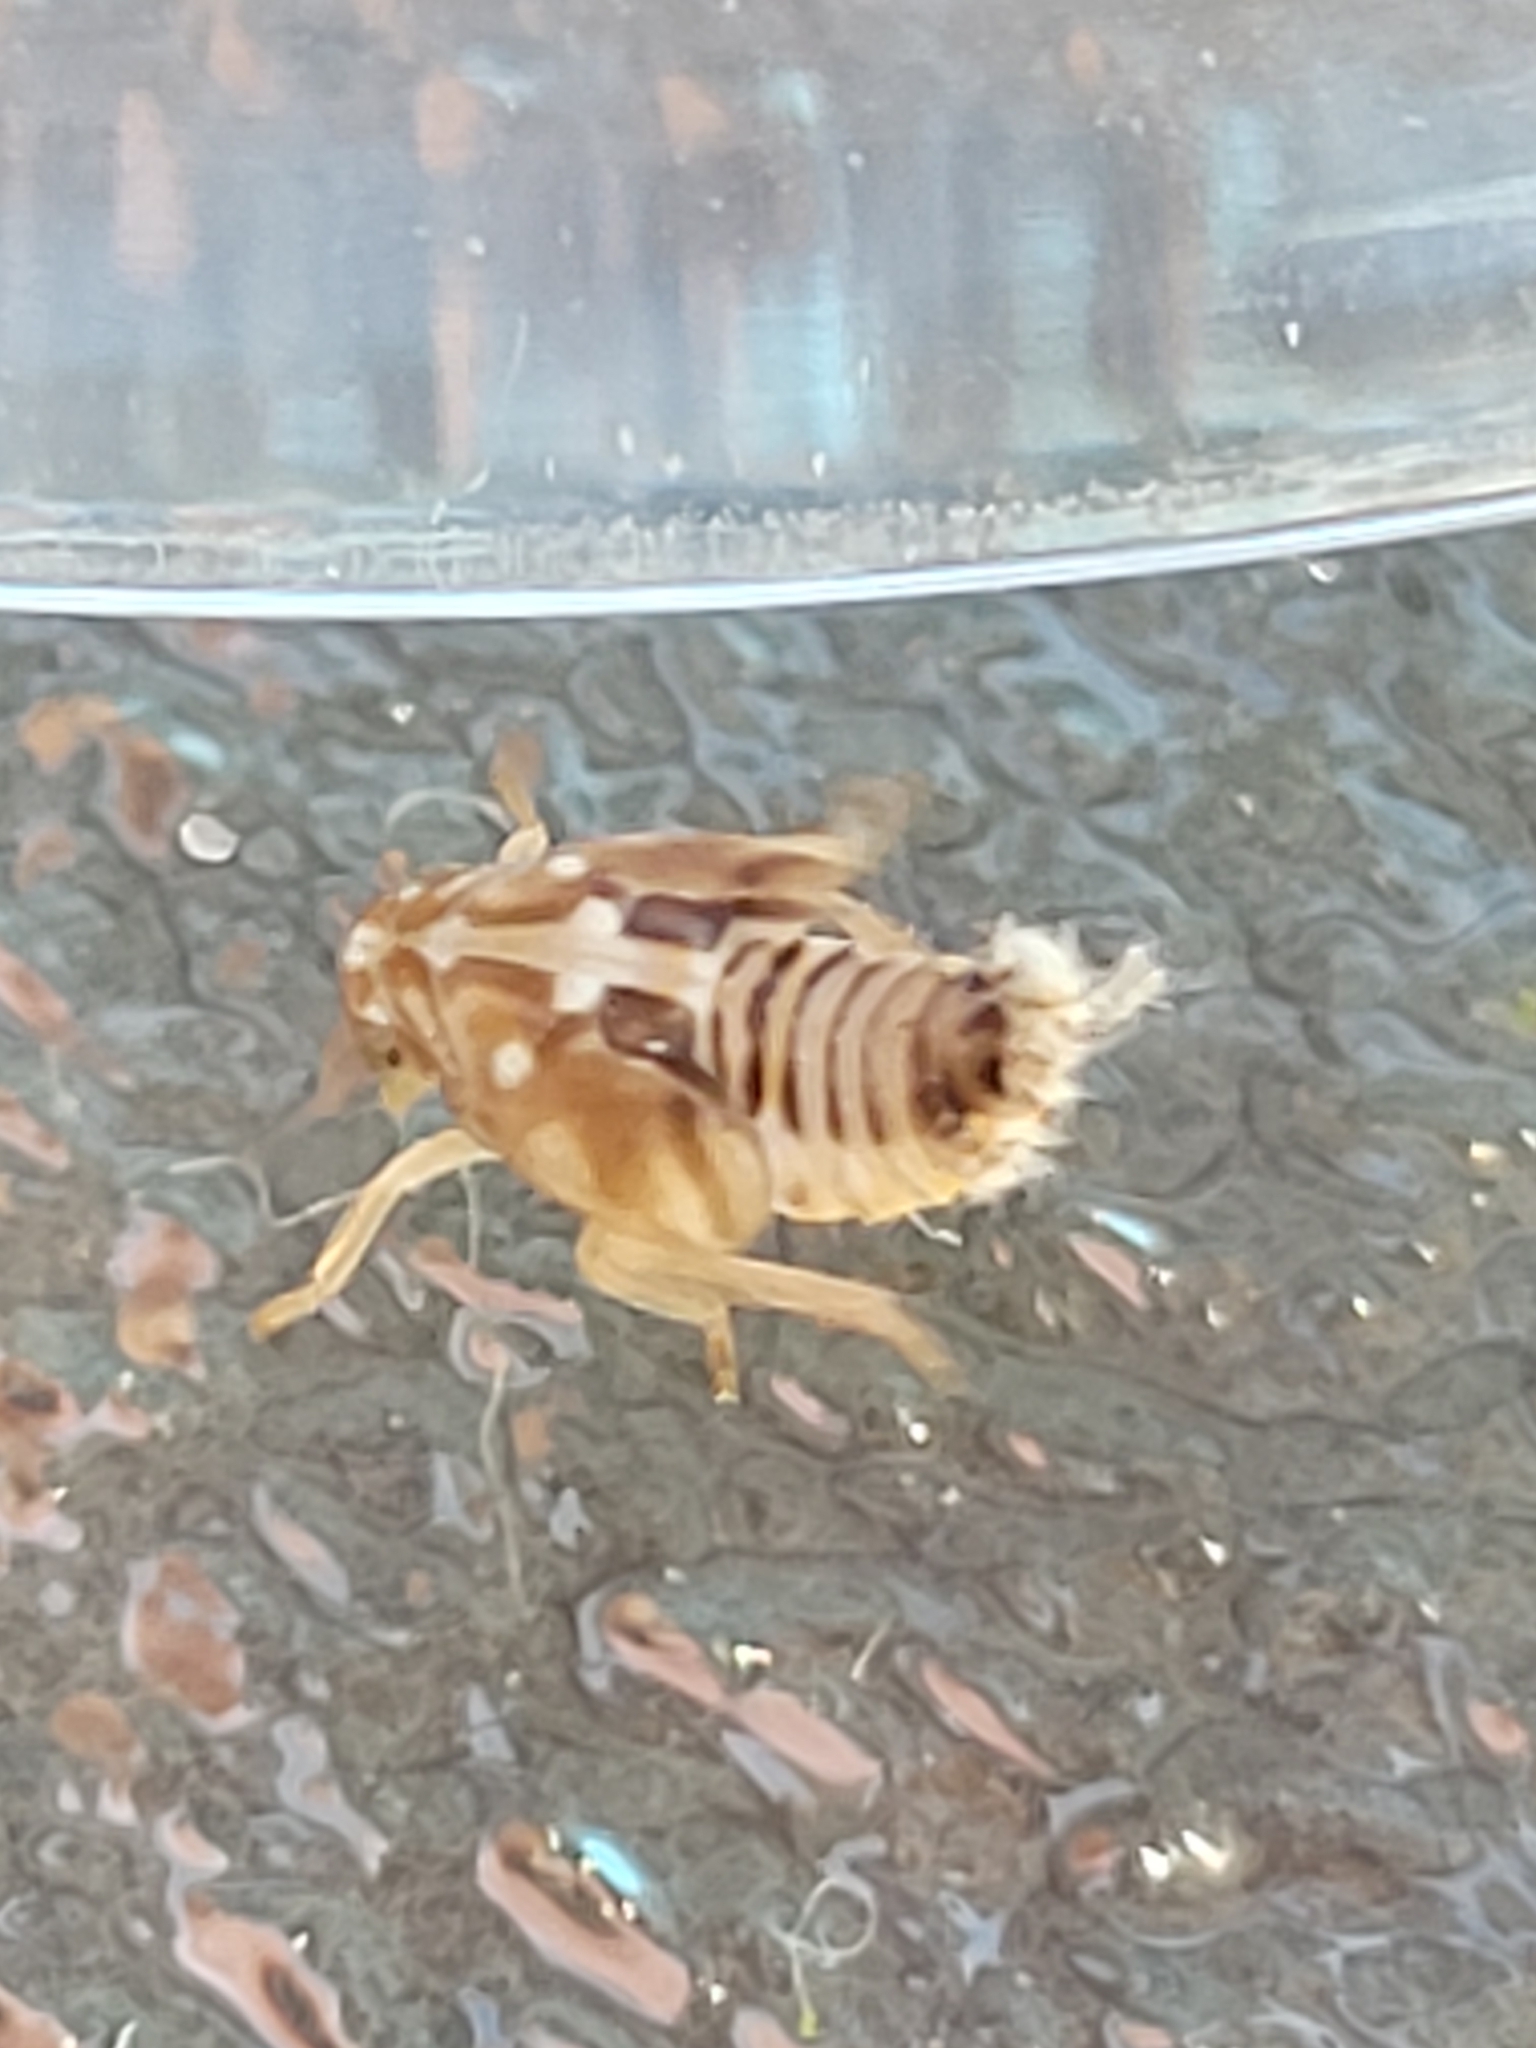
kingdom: Animalia
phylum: Arthropoda
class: Insecta
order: Hemiptera
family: Ricaniidae
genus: Scolypopa
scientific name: Scolypopa australis
